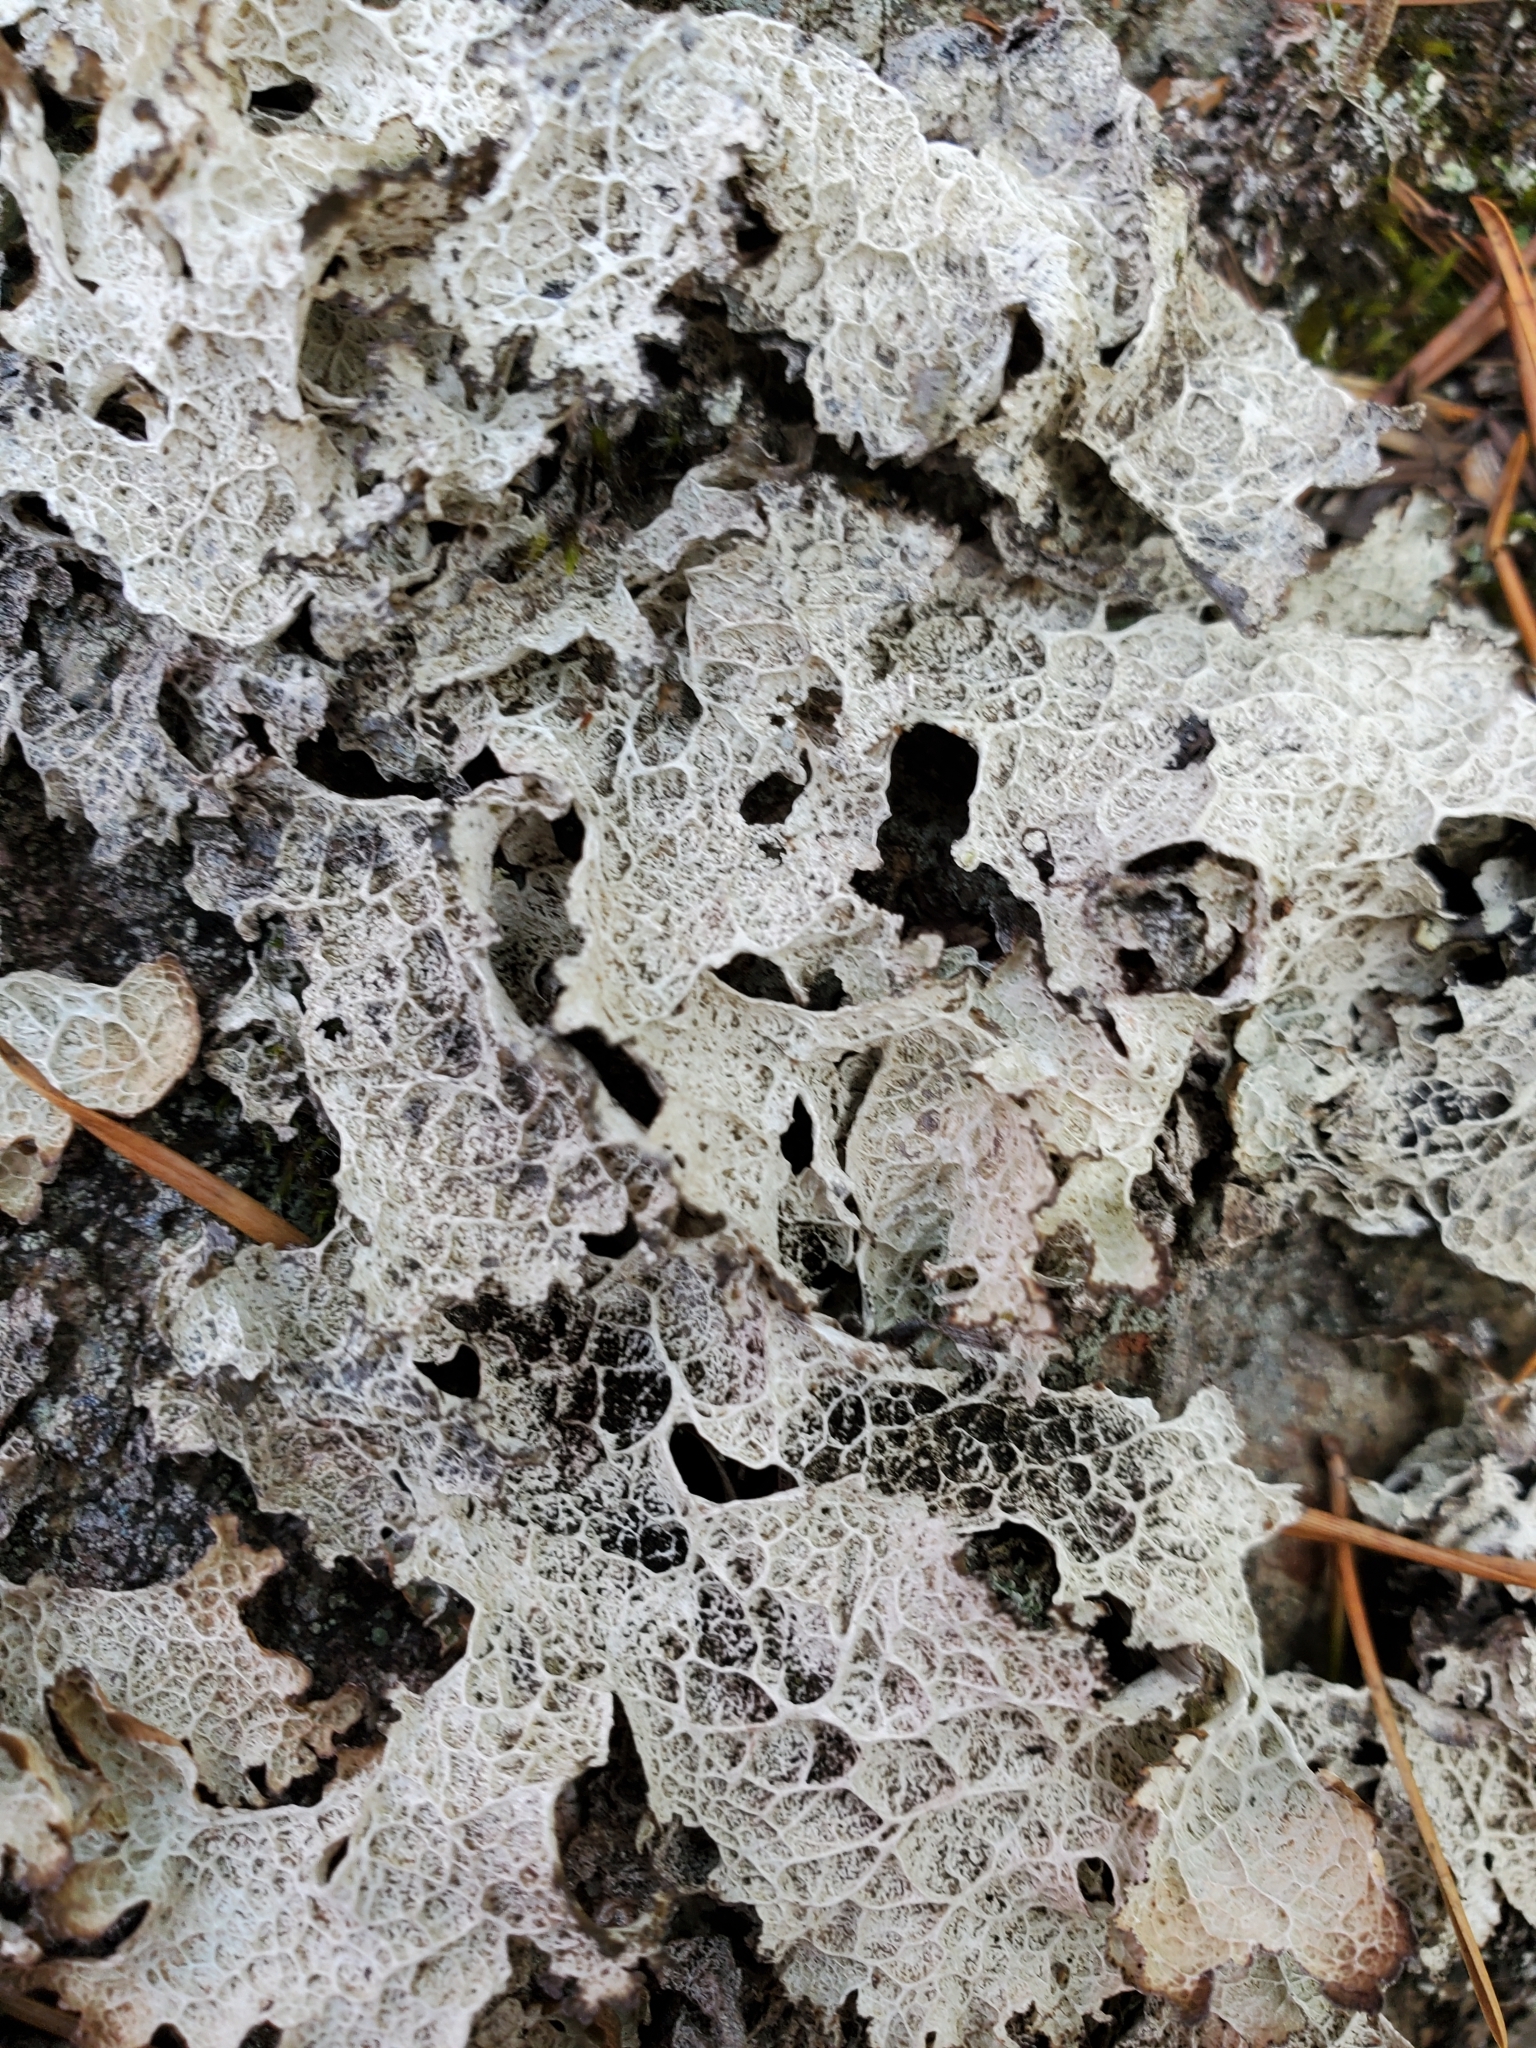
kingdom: Fungi
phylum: Ascomycota
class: Lecanoromycetes
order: Peltigerales
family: Lobariaceae
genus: Lobaria
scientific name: Lobaria oregana
